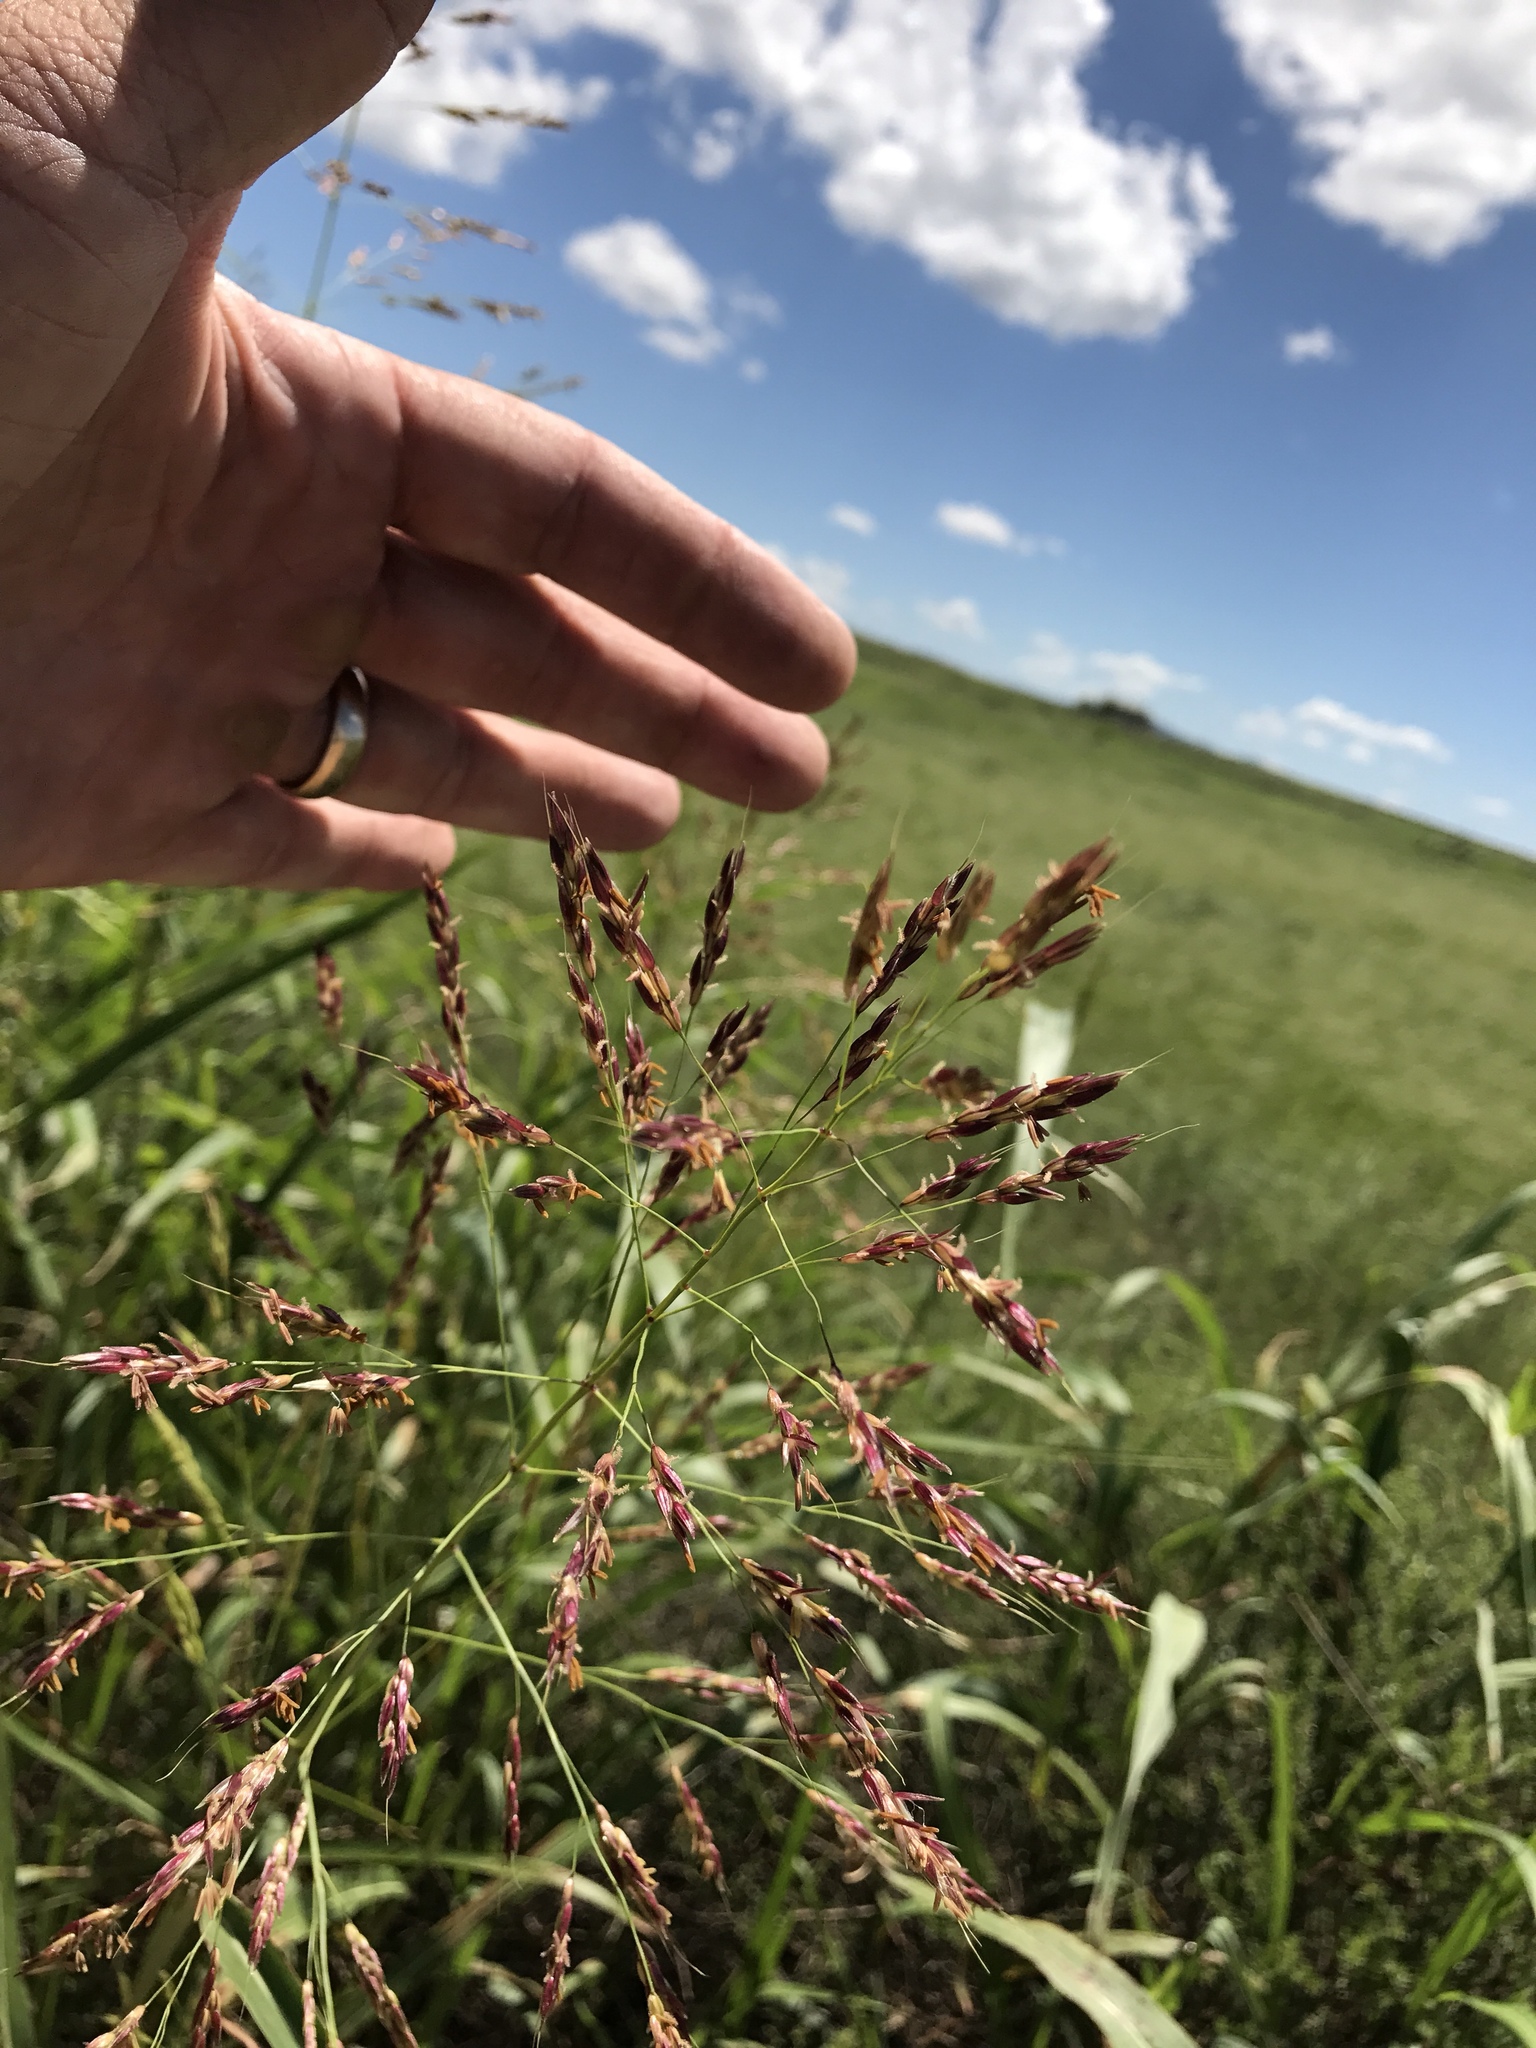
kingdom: Plantae
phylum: Tracheophyta
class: Liliopsida
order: Poales
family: Poaceae
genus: Sorghum
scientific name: Sorghum halepense
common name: Johnson-grass
